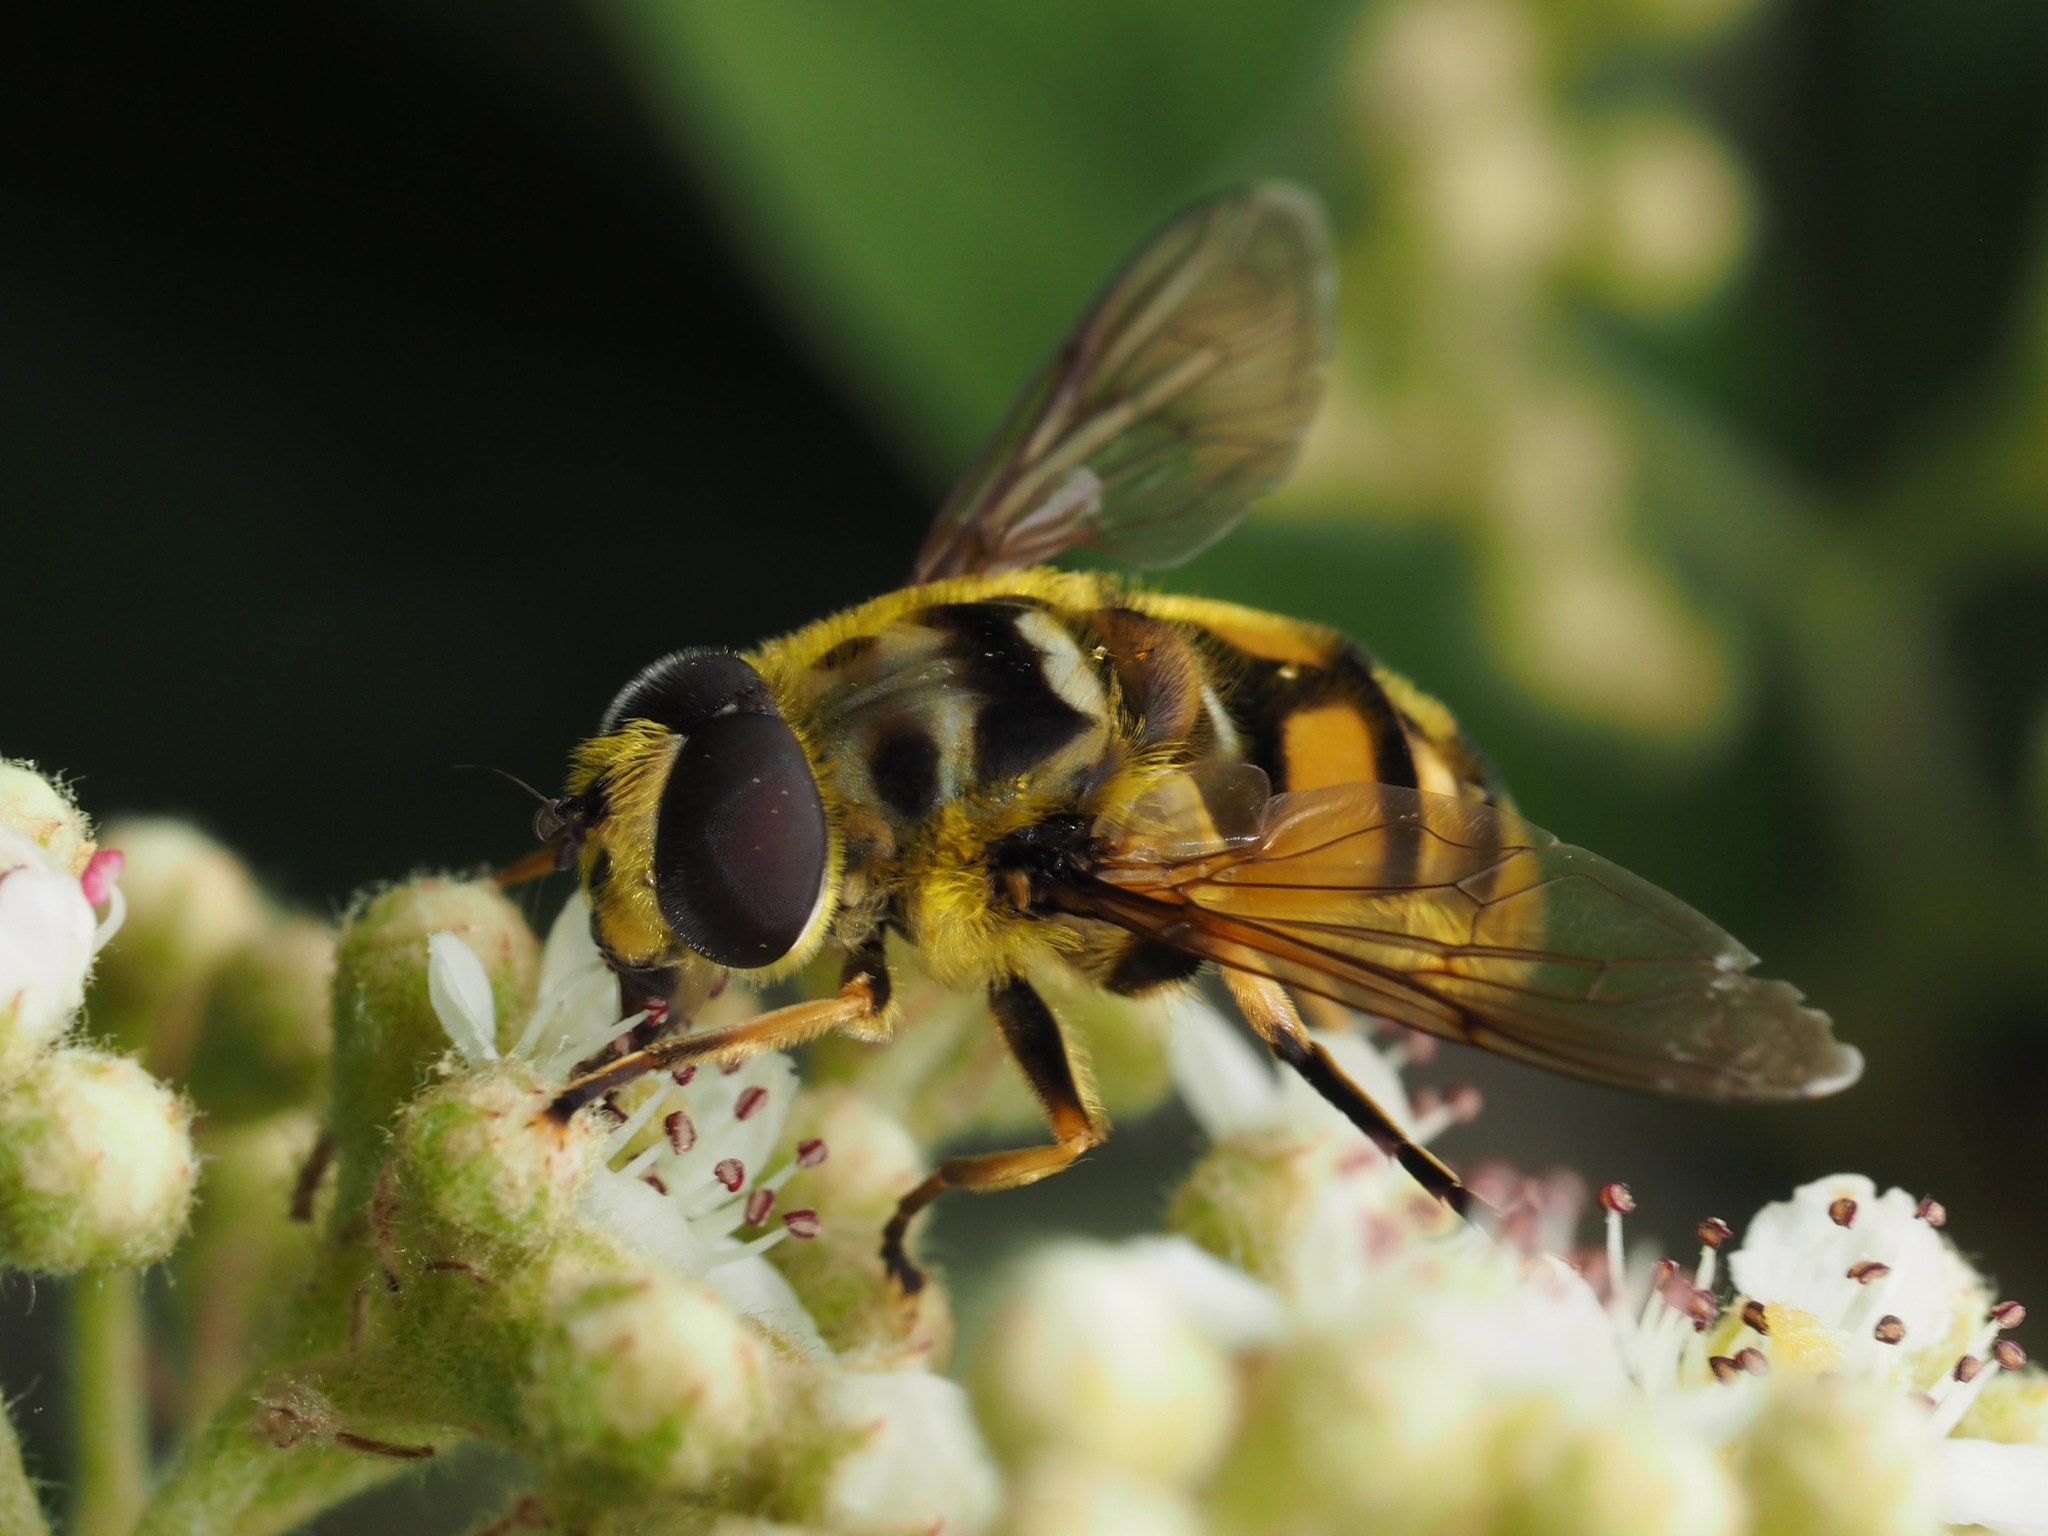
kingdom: Animalia
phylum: Arthropoda
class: Insecta
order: Diptera
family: Syrphidae
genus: Myathropa
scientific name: Myathropa florea
